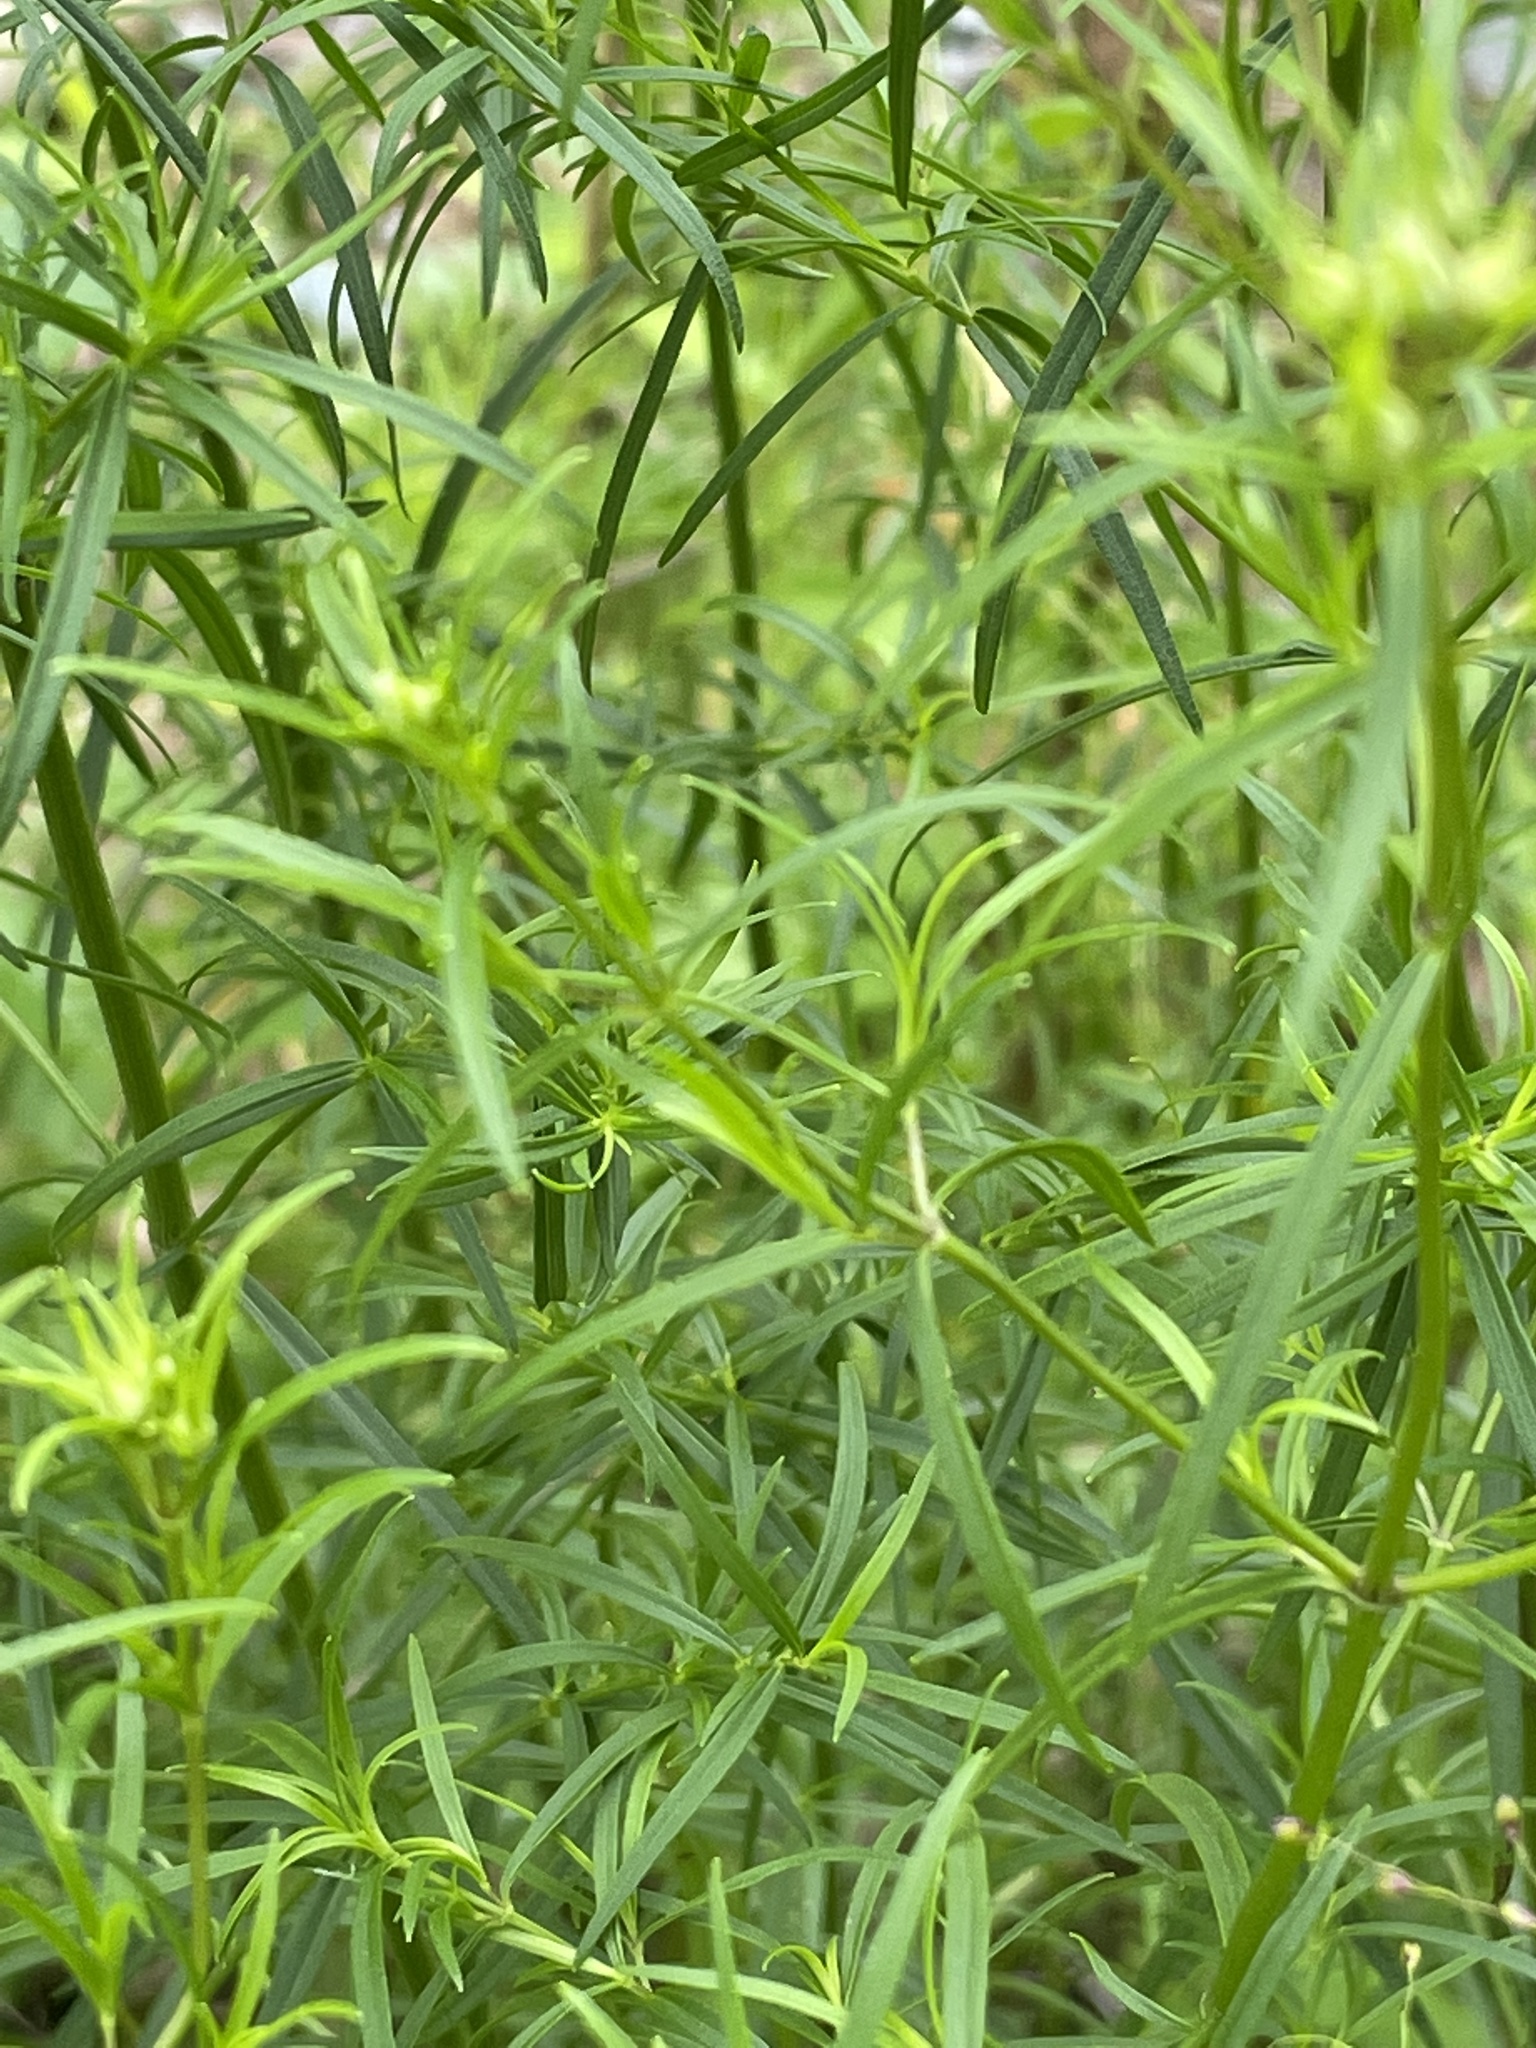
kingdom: Plantae
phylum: Tracheophyta
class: Magnoliopsida
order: Lamiales
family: Lamiaceae
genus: Pycnanthemum
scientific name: Pycnanthemum tenuifolium
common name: Narrow-leaf mountain-mint
